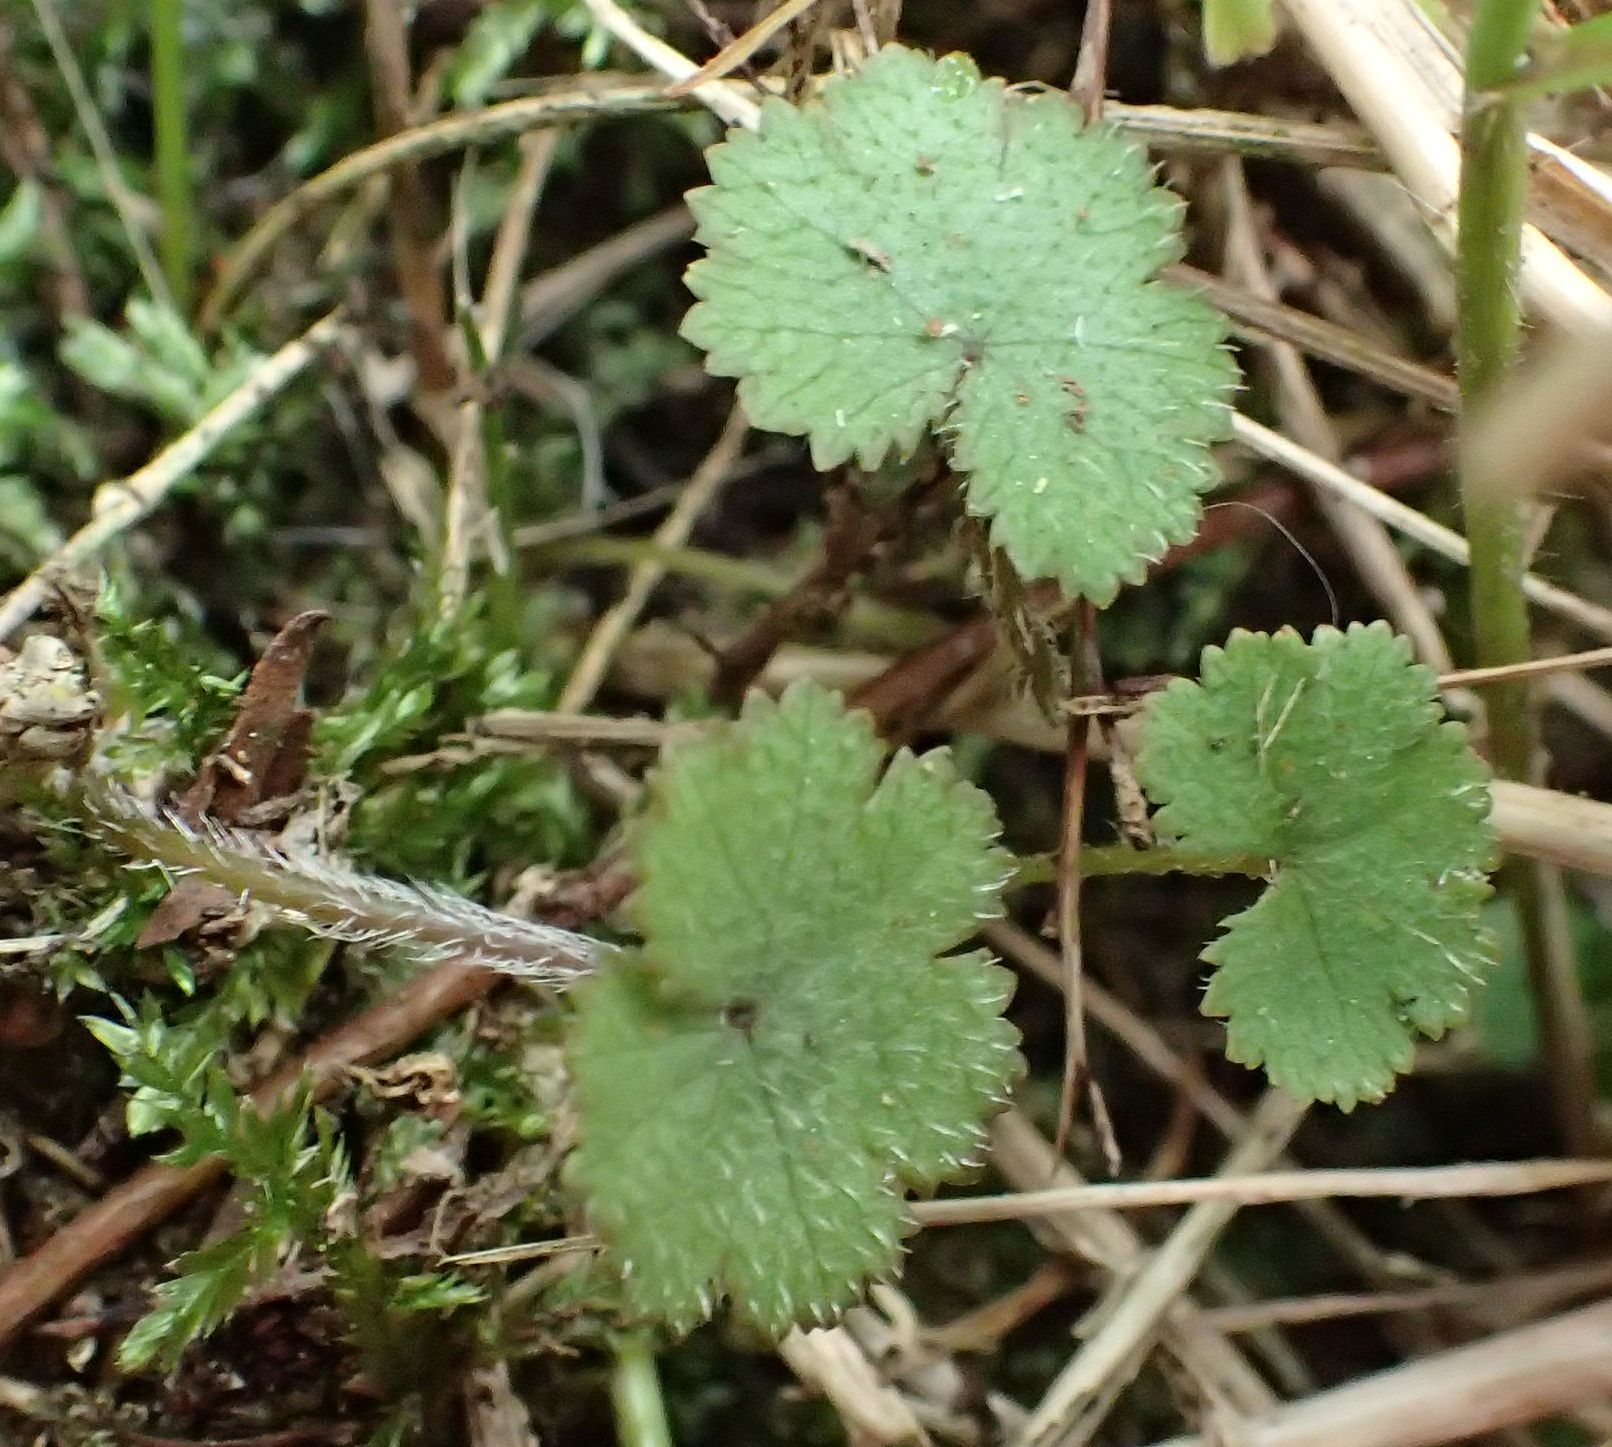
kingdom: Plantae
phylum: Tracheophyta
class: Magnoliopsida
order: Apiales
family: Araliaceae
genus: Hydrocotyle
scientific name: Hydrocotyle moschata
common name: Hairy pennywort
